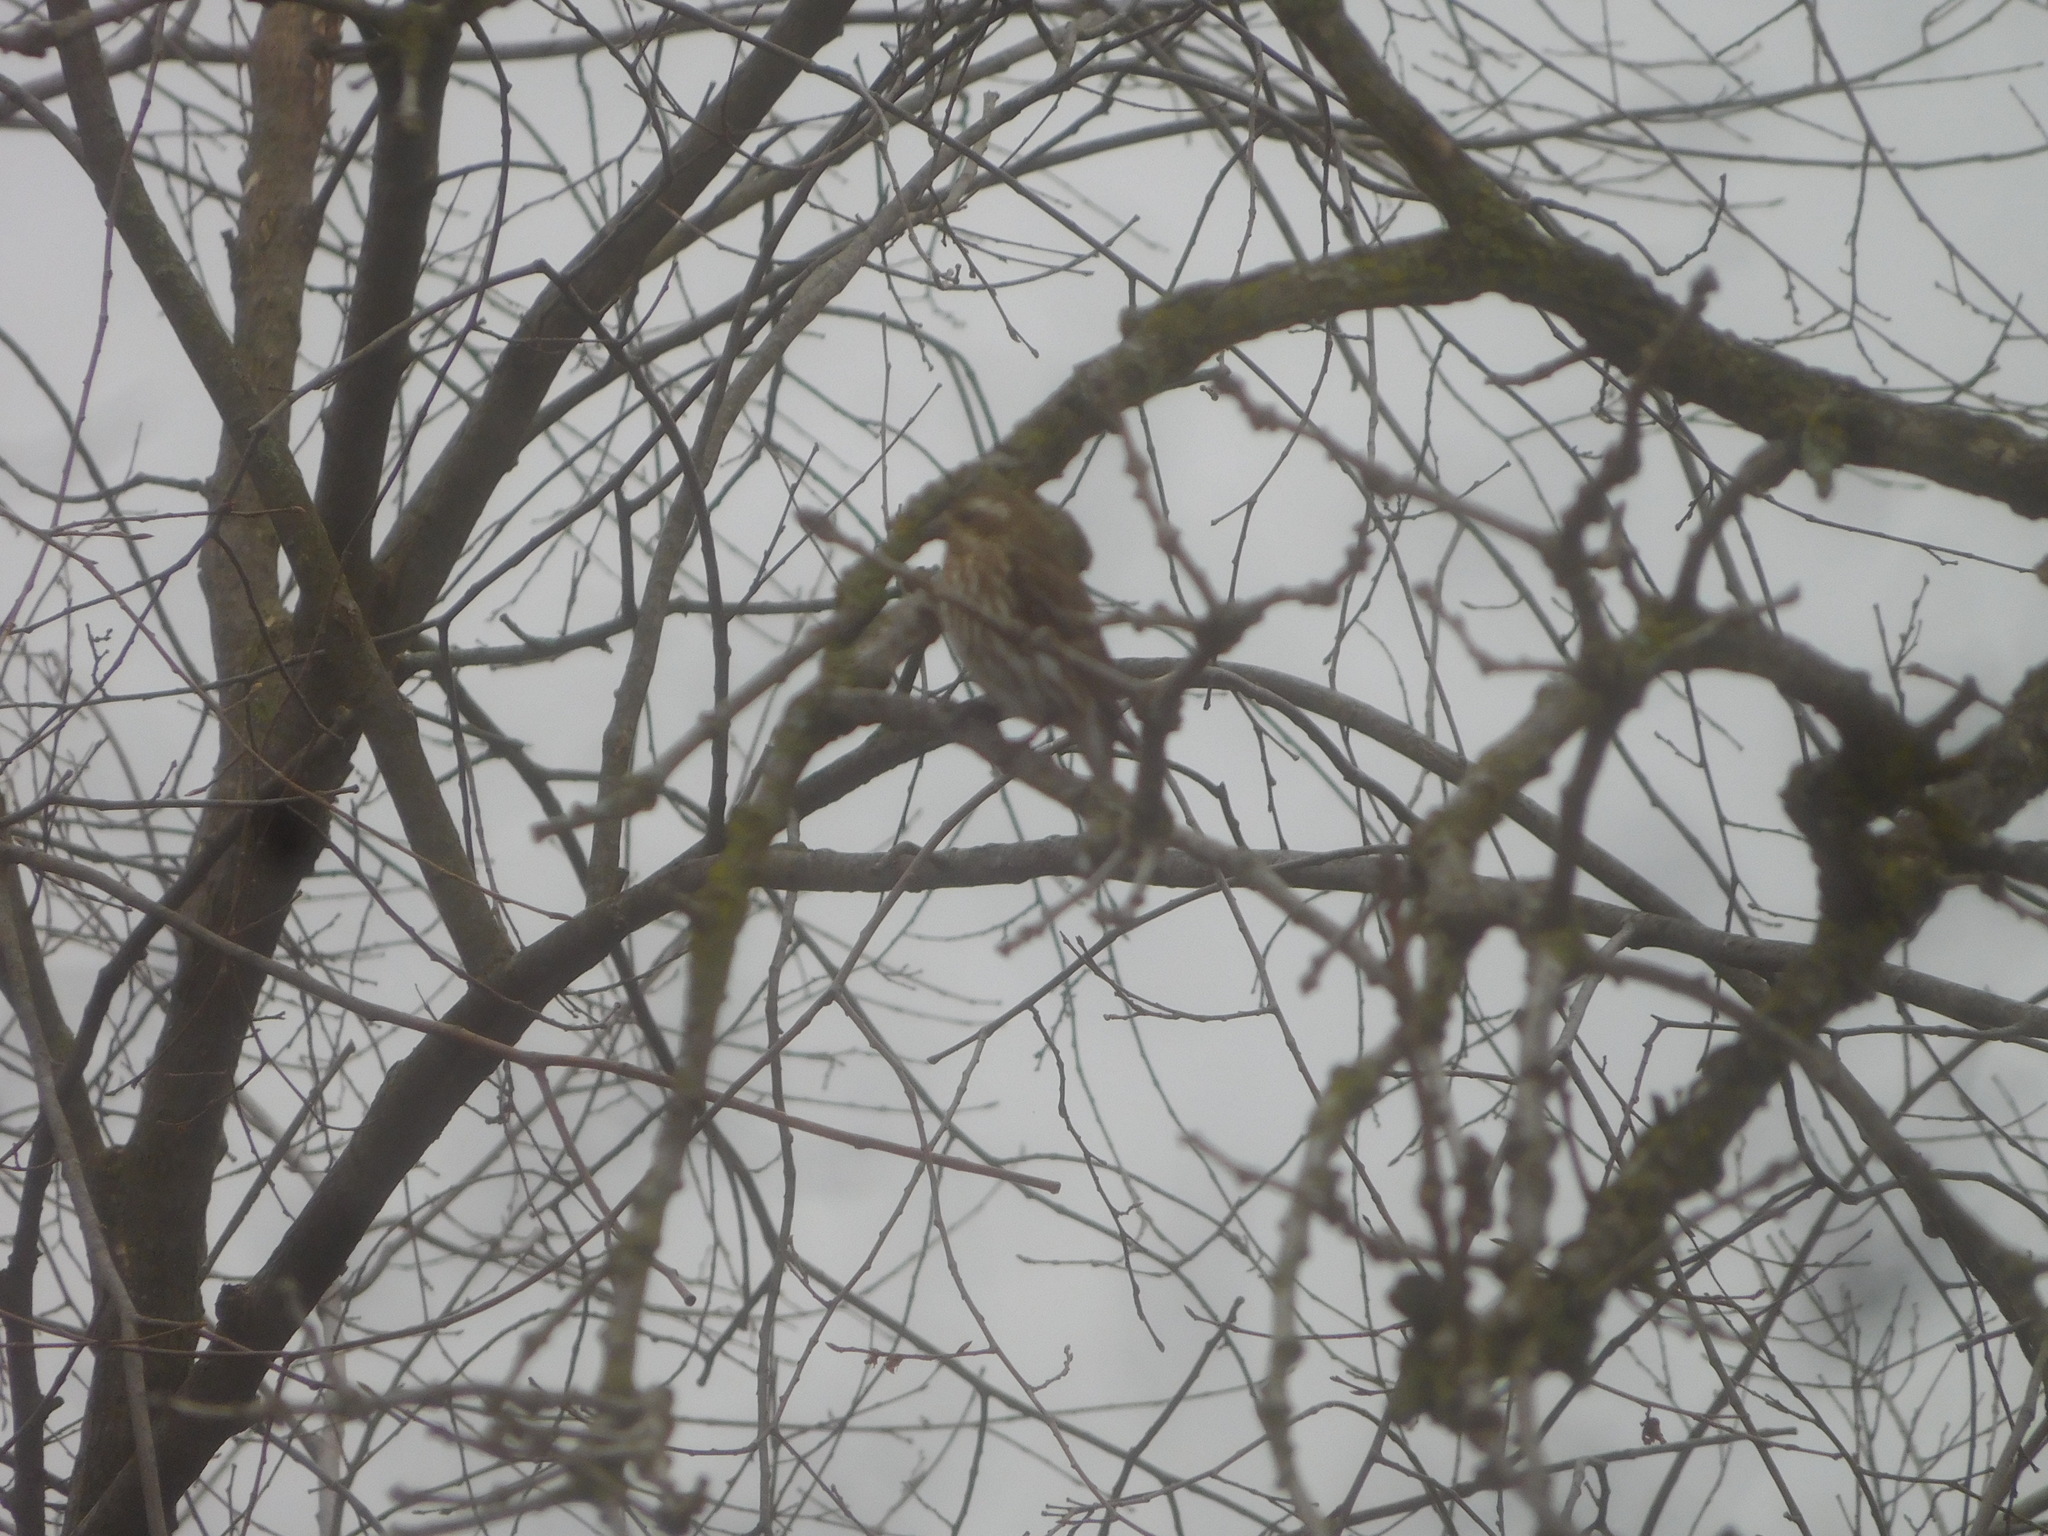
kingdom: Animalia
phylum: Chordata
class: Aves
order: Passeriformes
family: Fringillidae
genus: Haemorhous
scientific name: Haemorhous purpureus
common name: Purple finch
